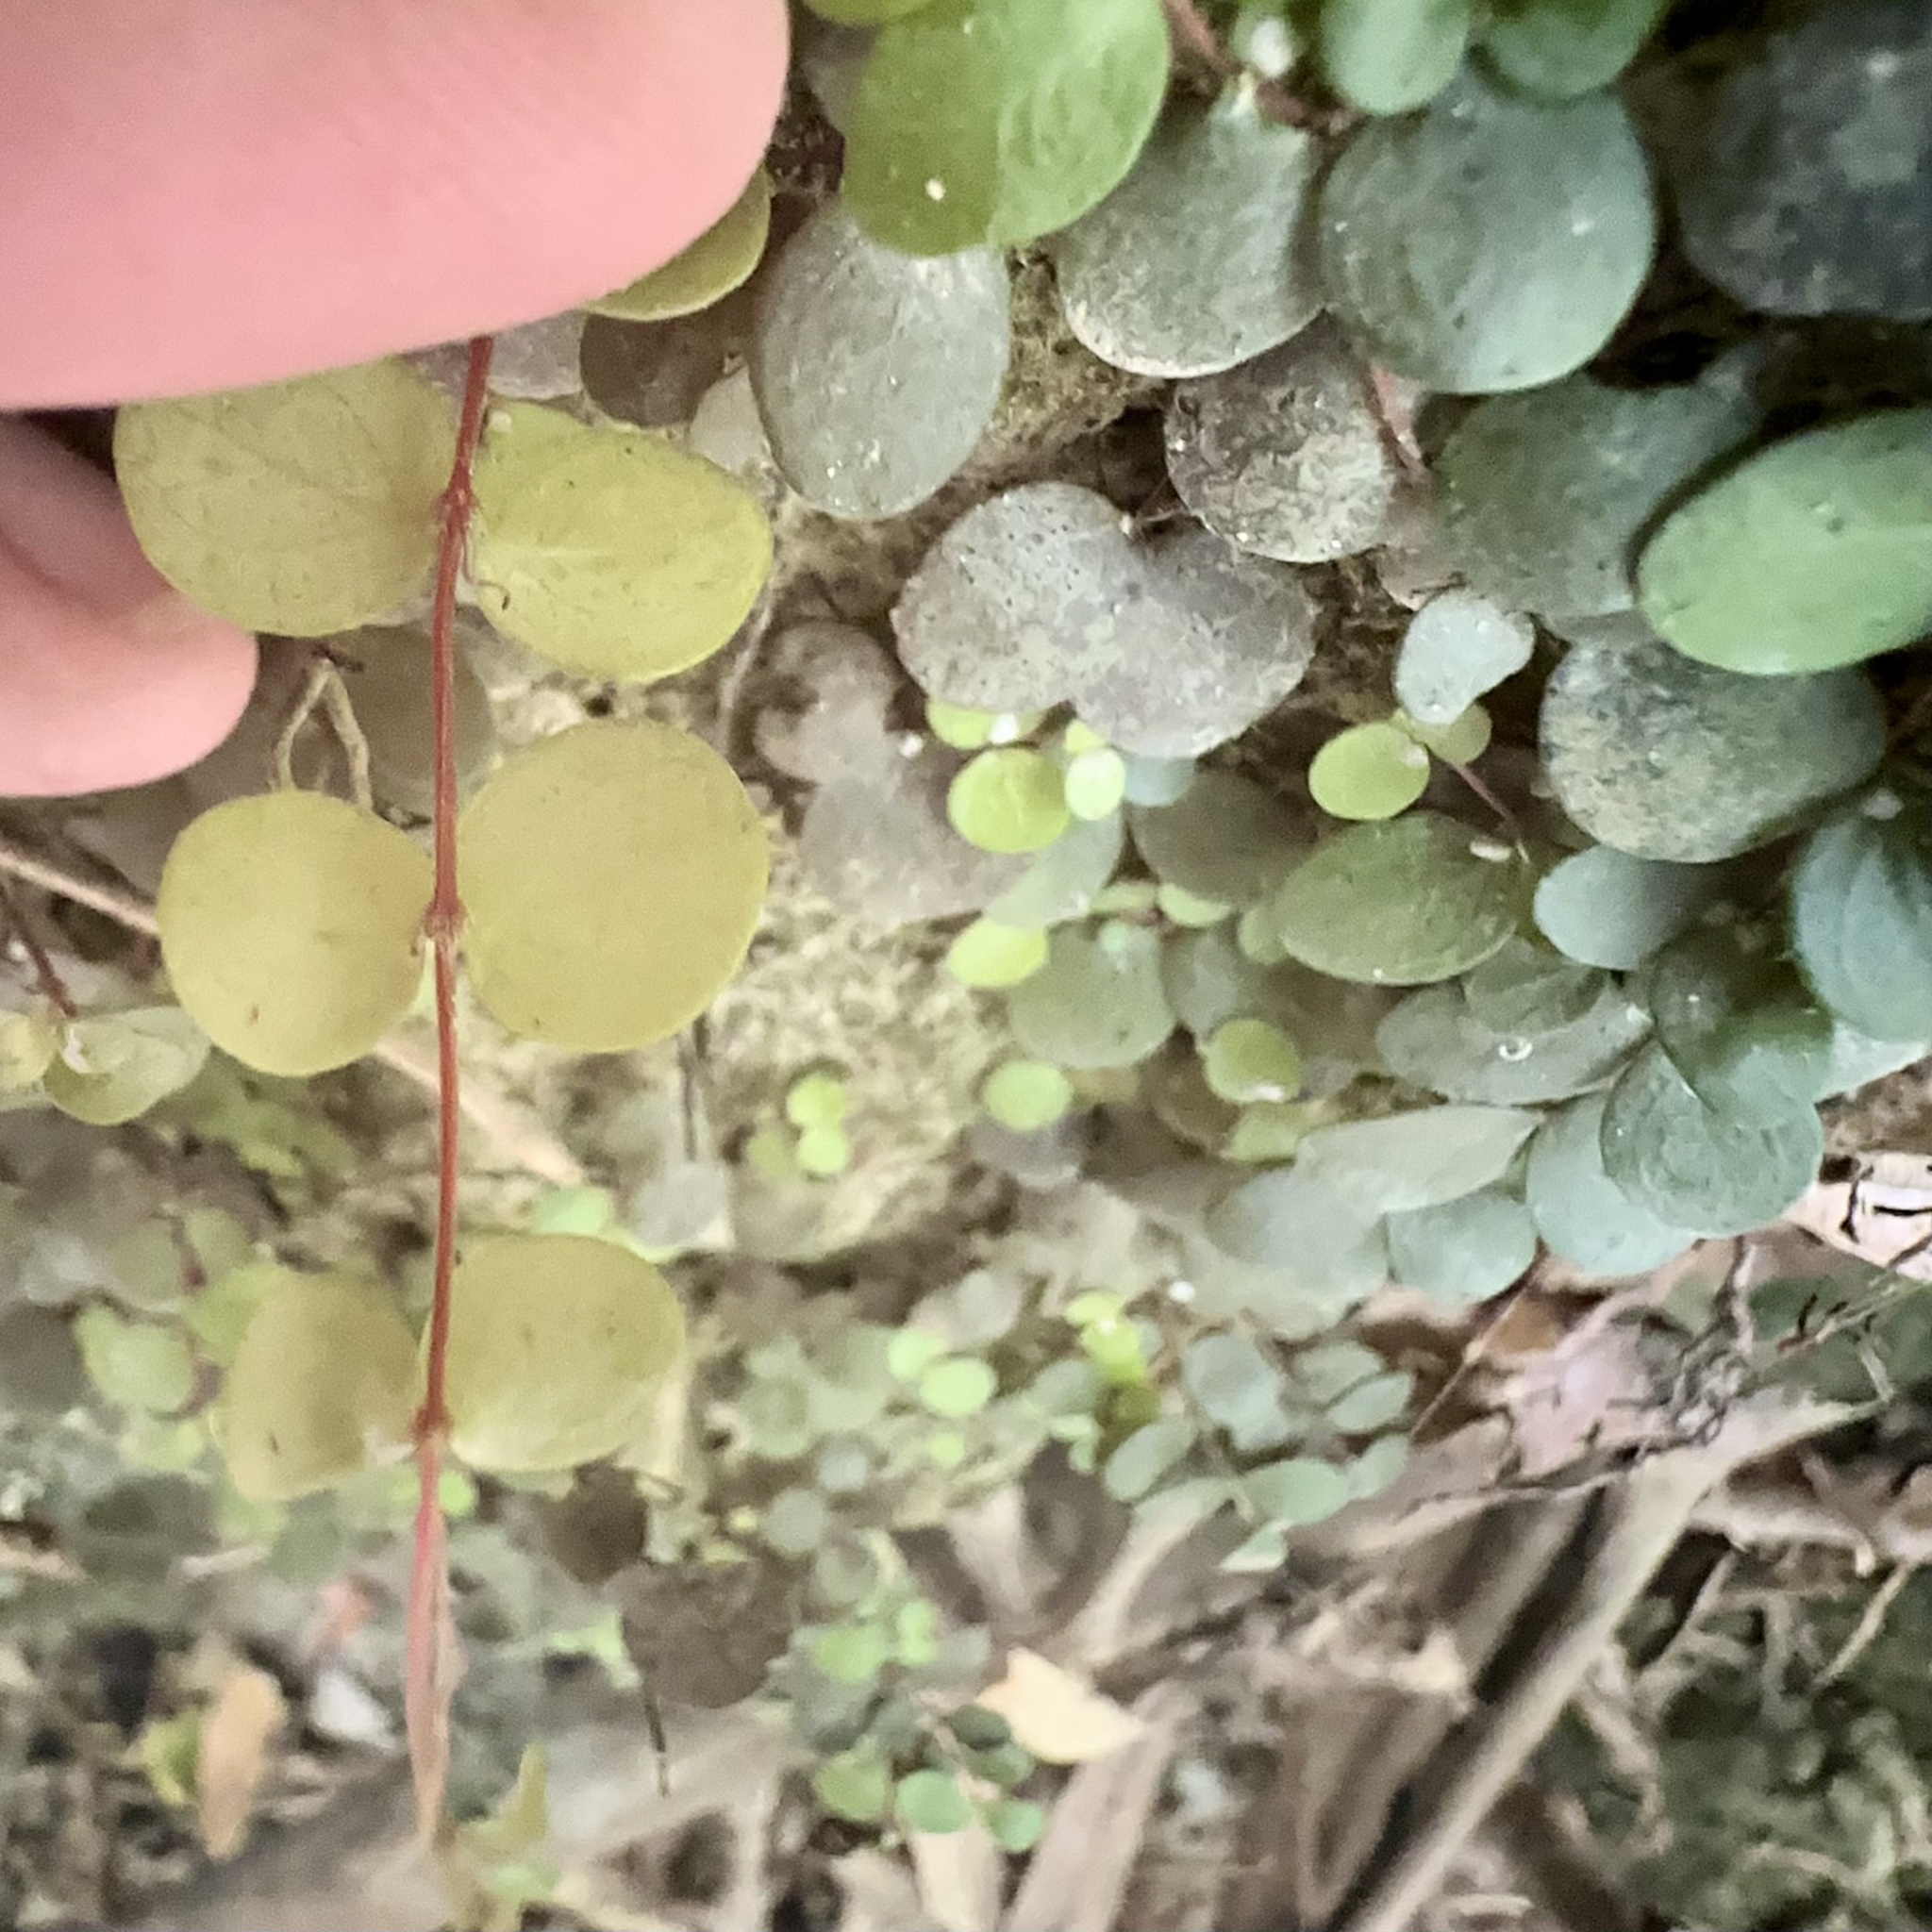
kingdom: Plantae
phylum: Tracheophyta
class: Magnoliopsida
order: Myrtales
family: Myrtaceae
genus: Metrosideros
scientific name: Metrosideros perforata
